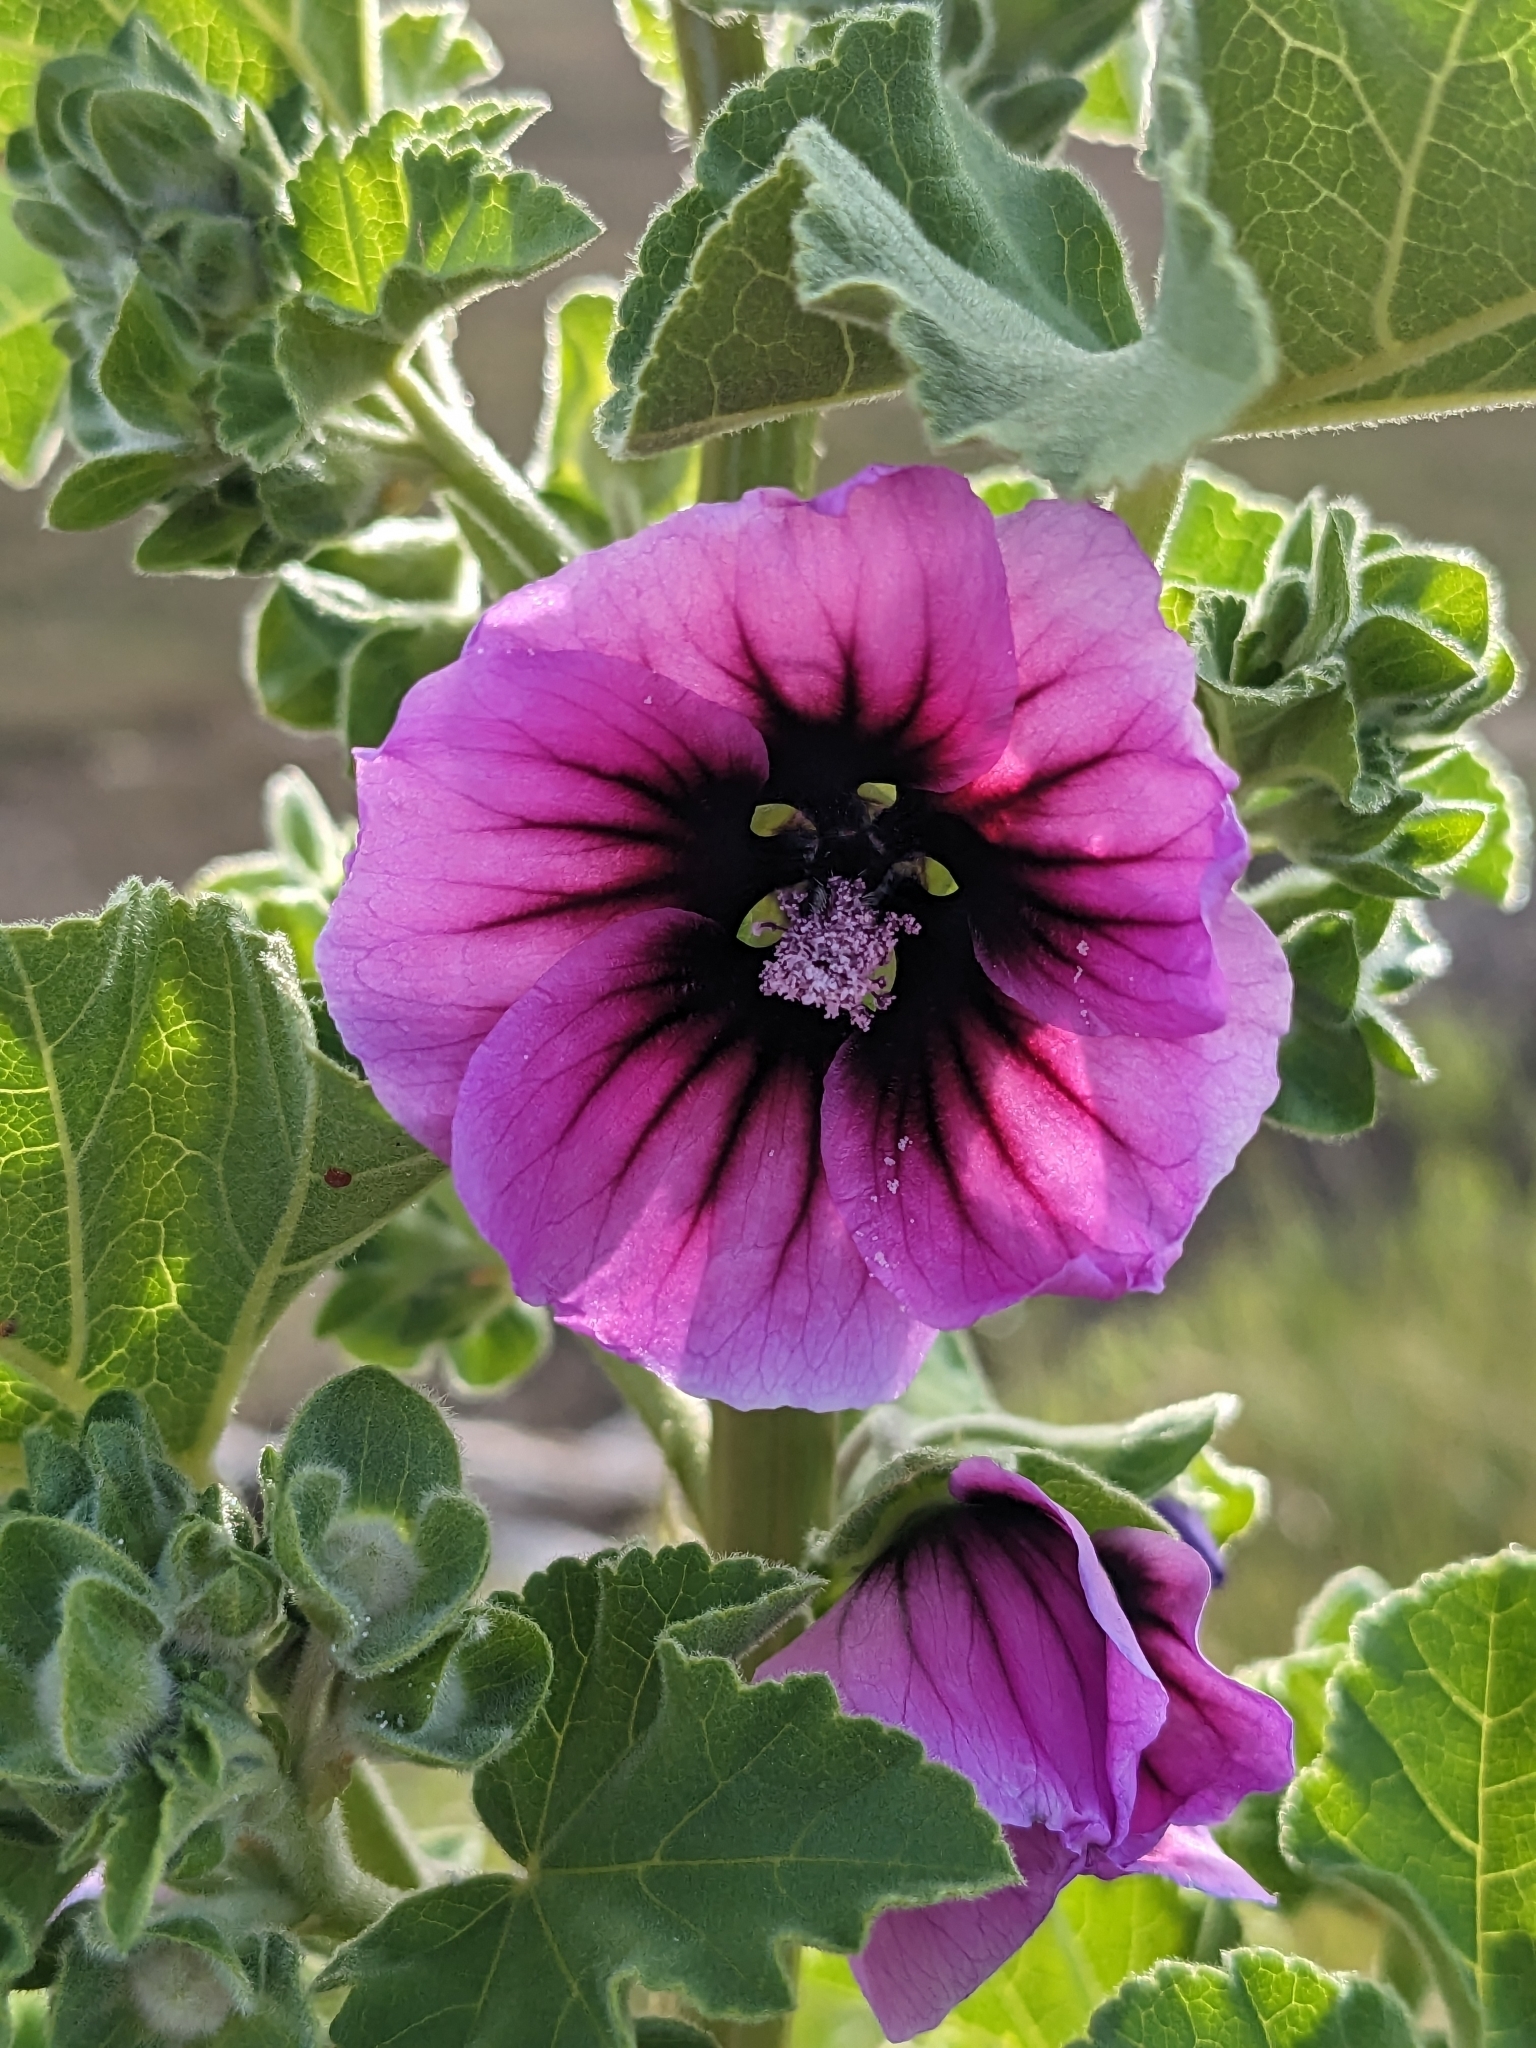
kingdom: Plantae
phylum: Tracheophyta
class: Magnoliopsida
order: Malvales
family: Malvaceae
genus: Malva
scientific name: Malva arborea
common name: Tree mallow
